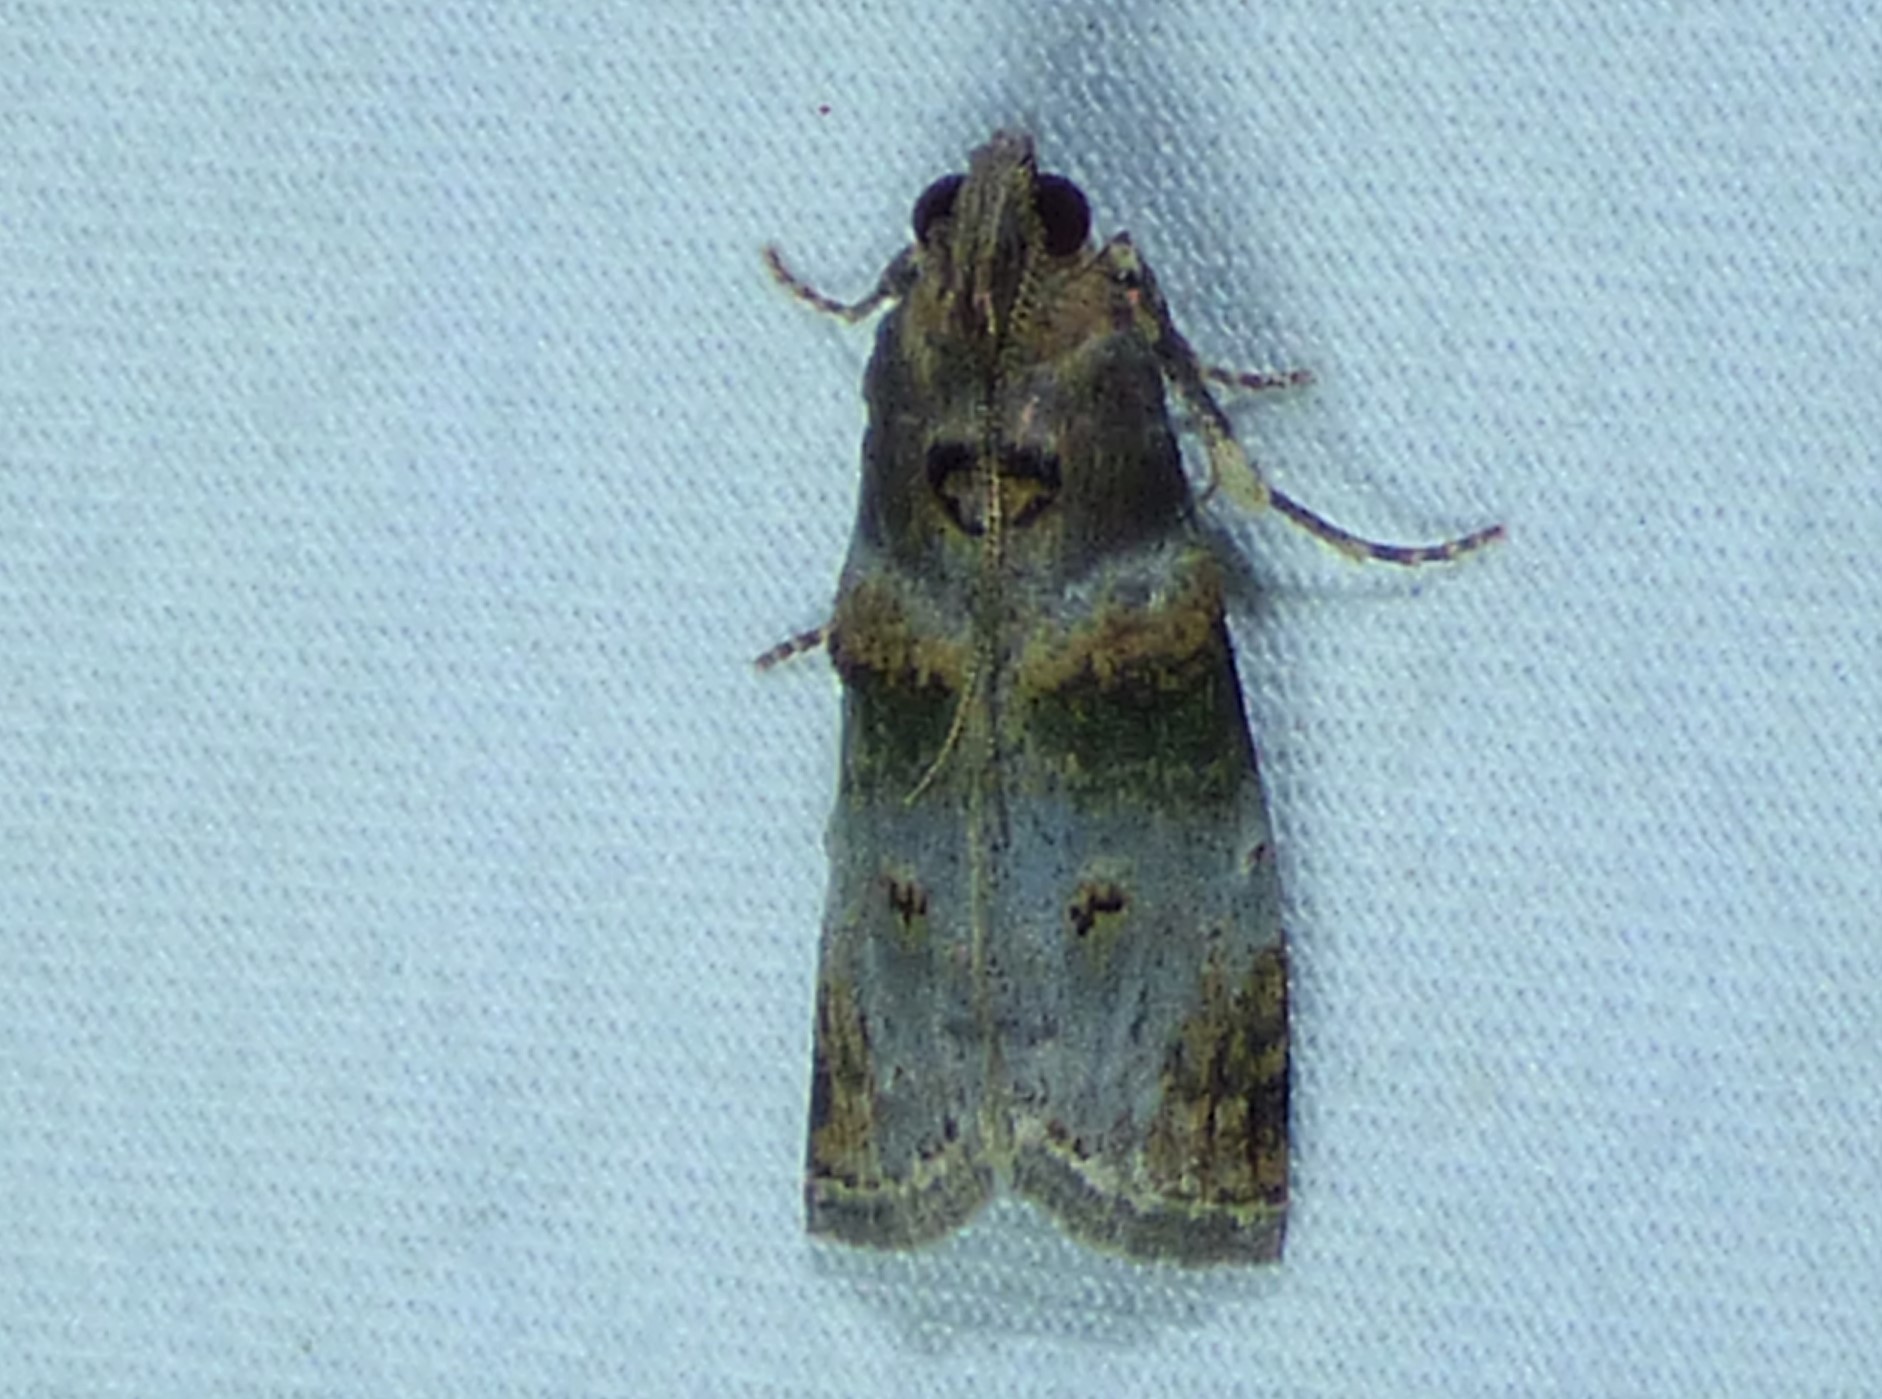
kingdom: Animalia
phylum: Arthropoda
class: Insecta
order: Lepidoptera
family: Pyralidae
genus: Oneida
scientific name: Oneida lunulalis
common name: Orange-tufted oneida moth
